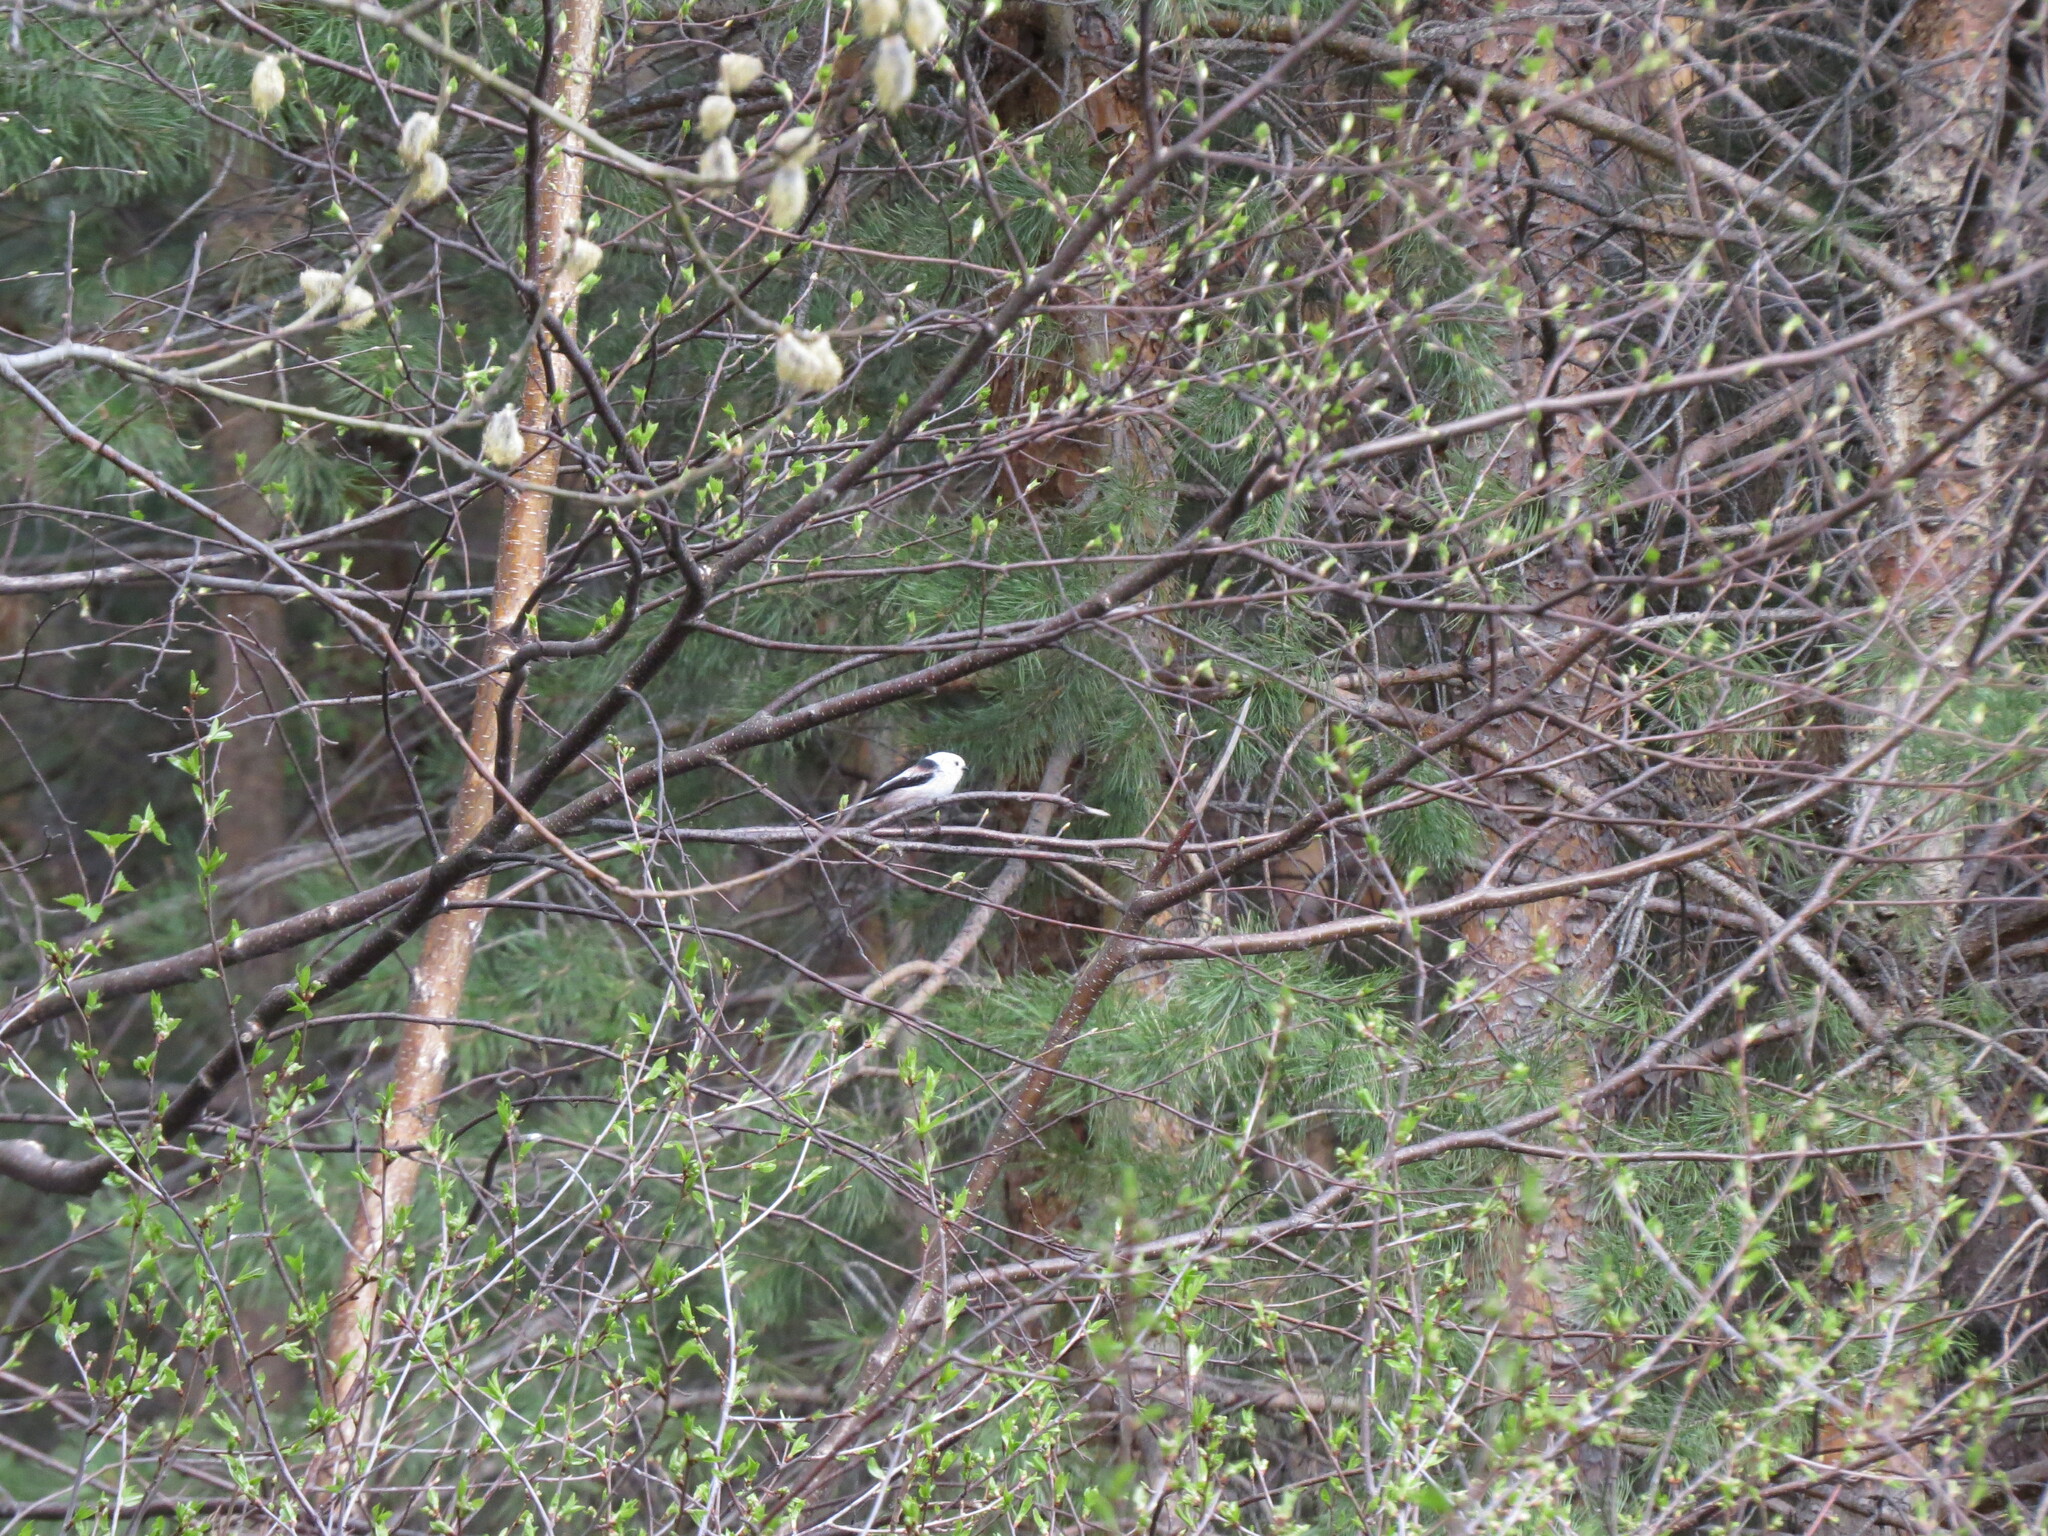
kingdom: Animalia
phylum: Chordata
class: Aves
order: Passeriformes
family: Aegithalidae
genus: Aegithalos
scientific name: Aegithalos caudatus
